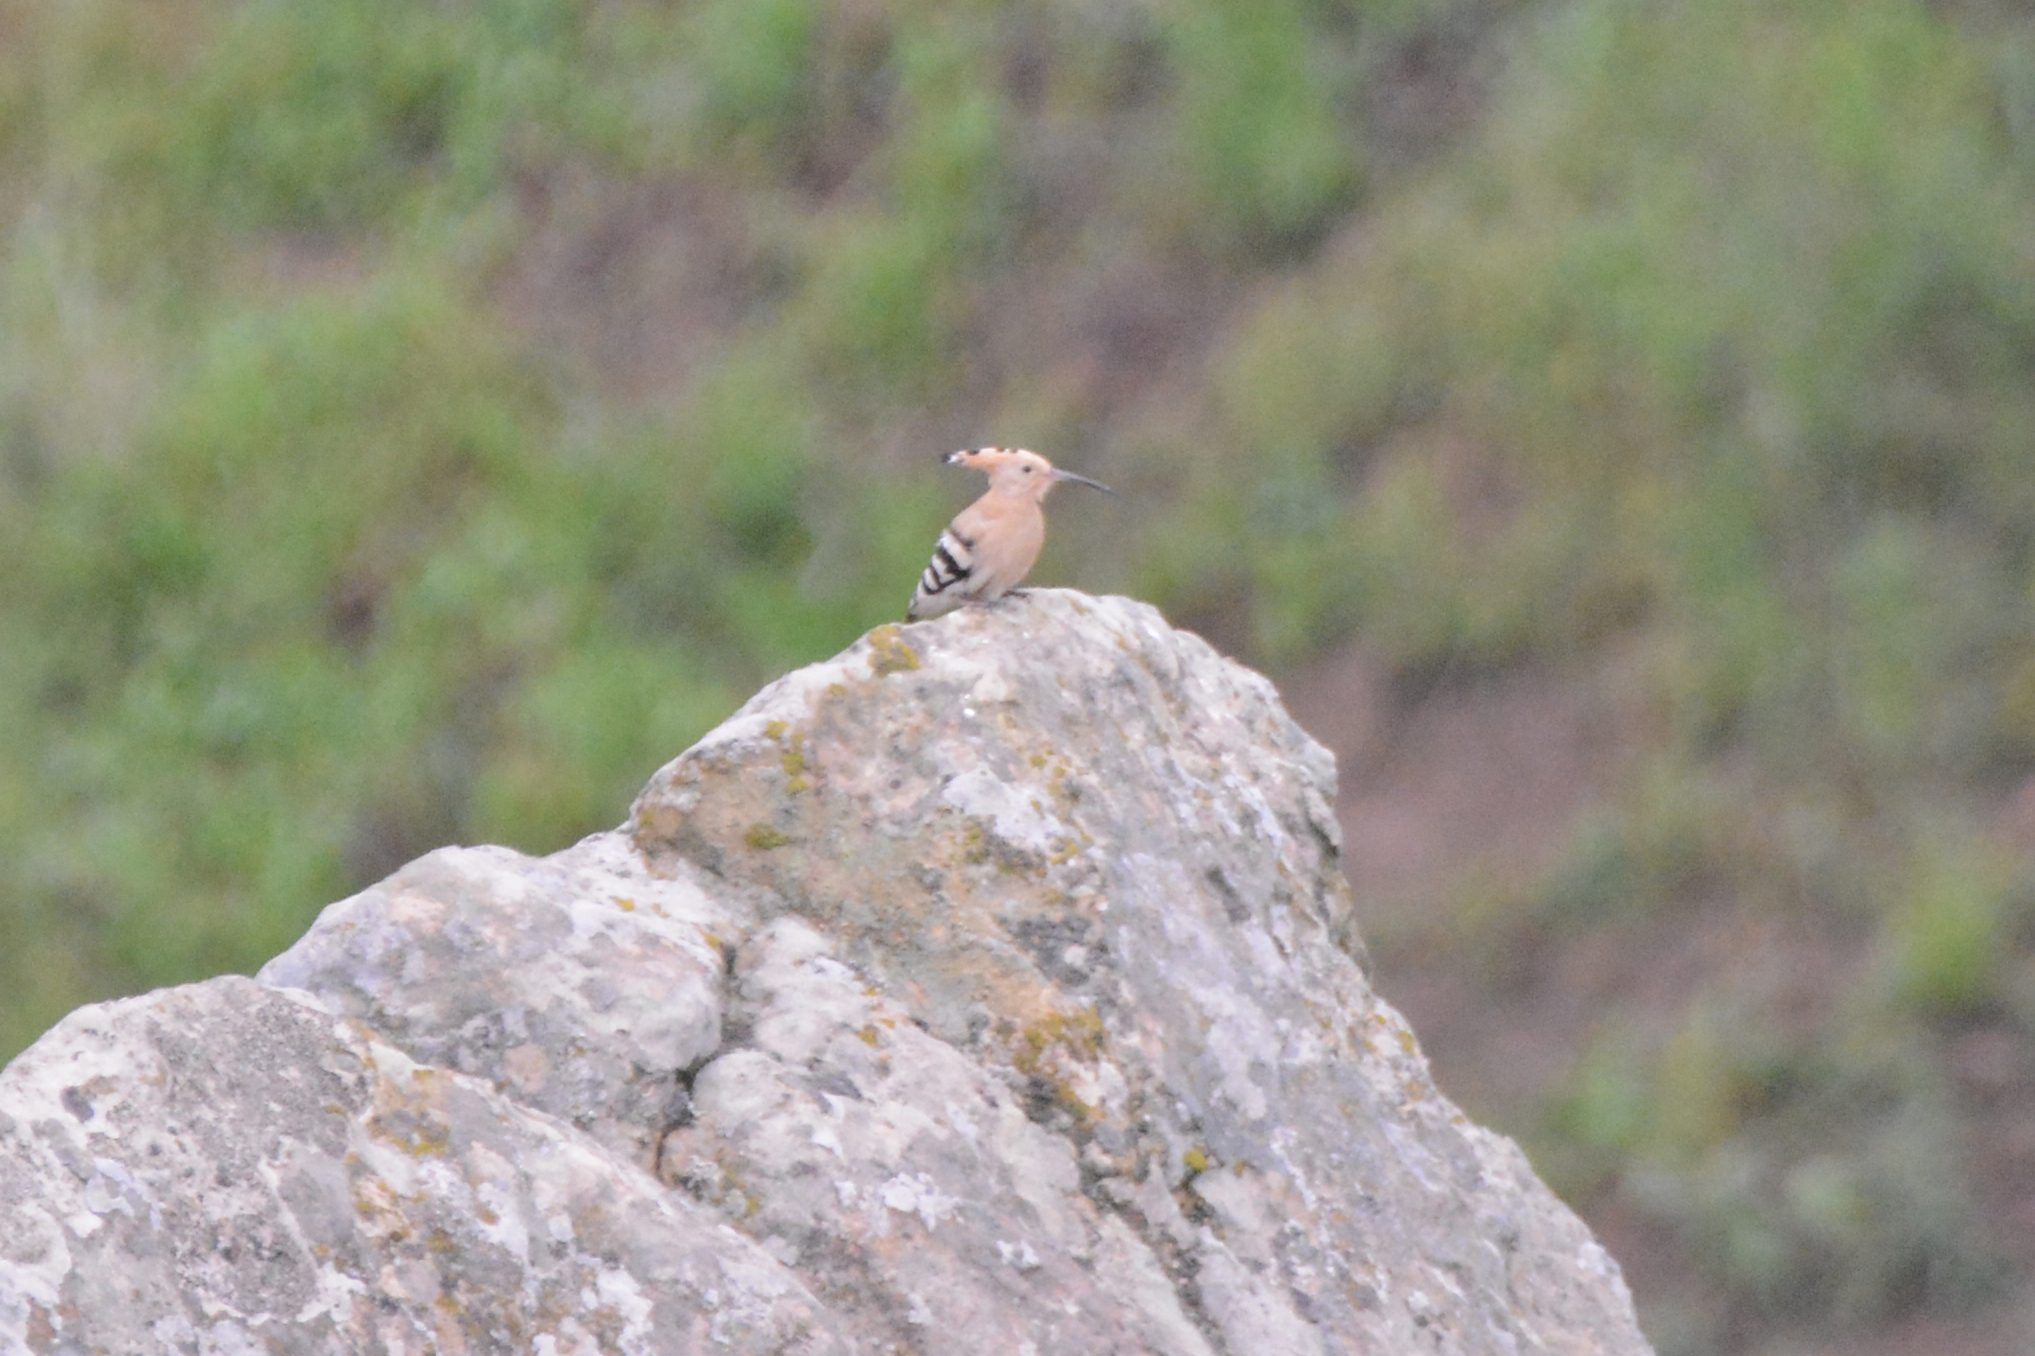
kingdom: Animalia
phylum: Chordata
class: Aves
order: Bucerotiformes
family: Upupidae
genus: Upupa
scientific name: Upupa epops
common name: Eurasian hoopoe
